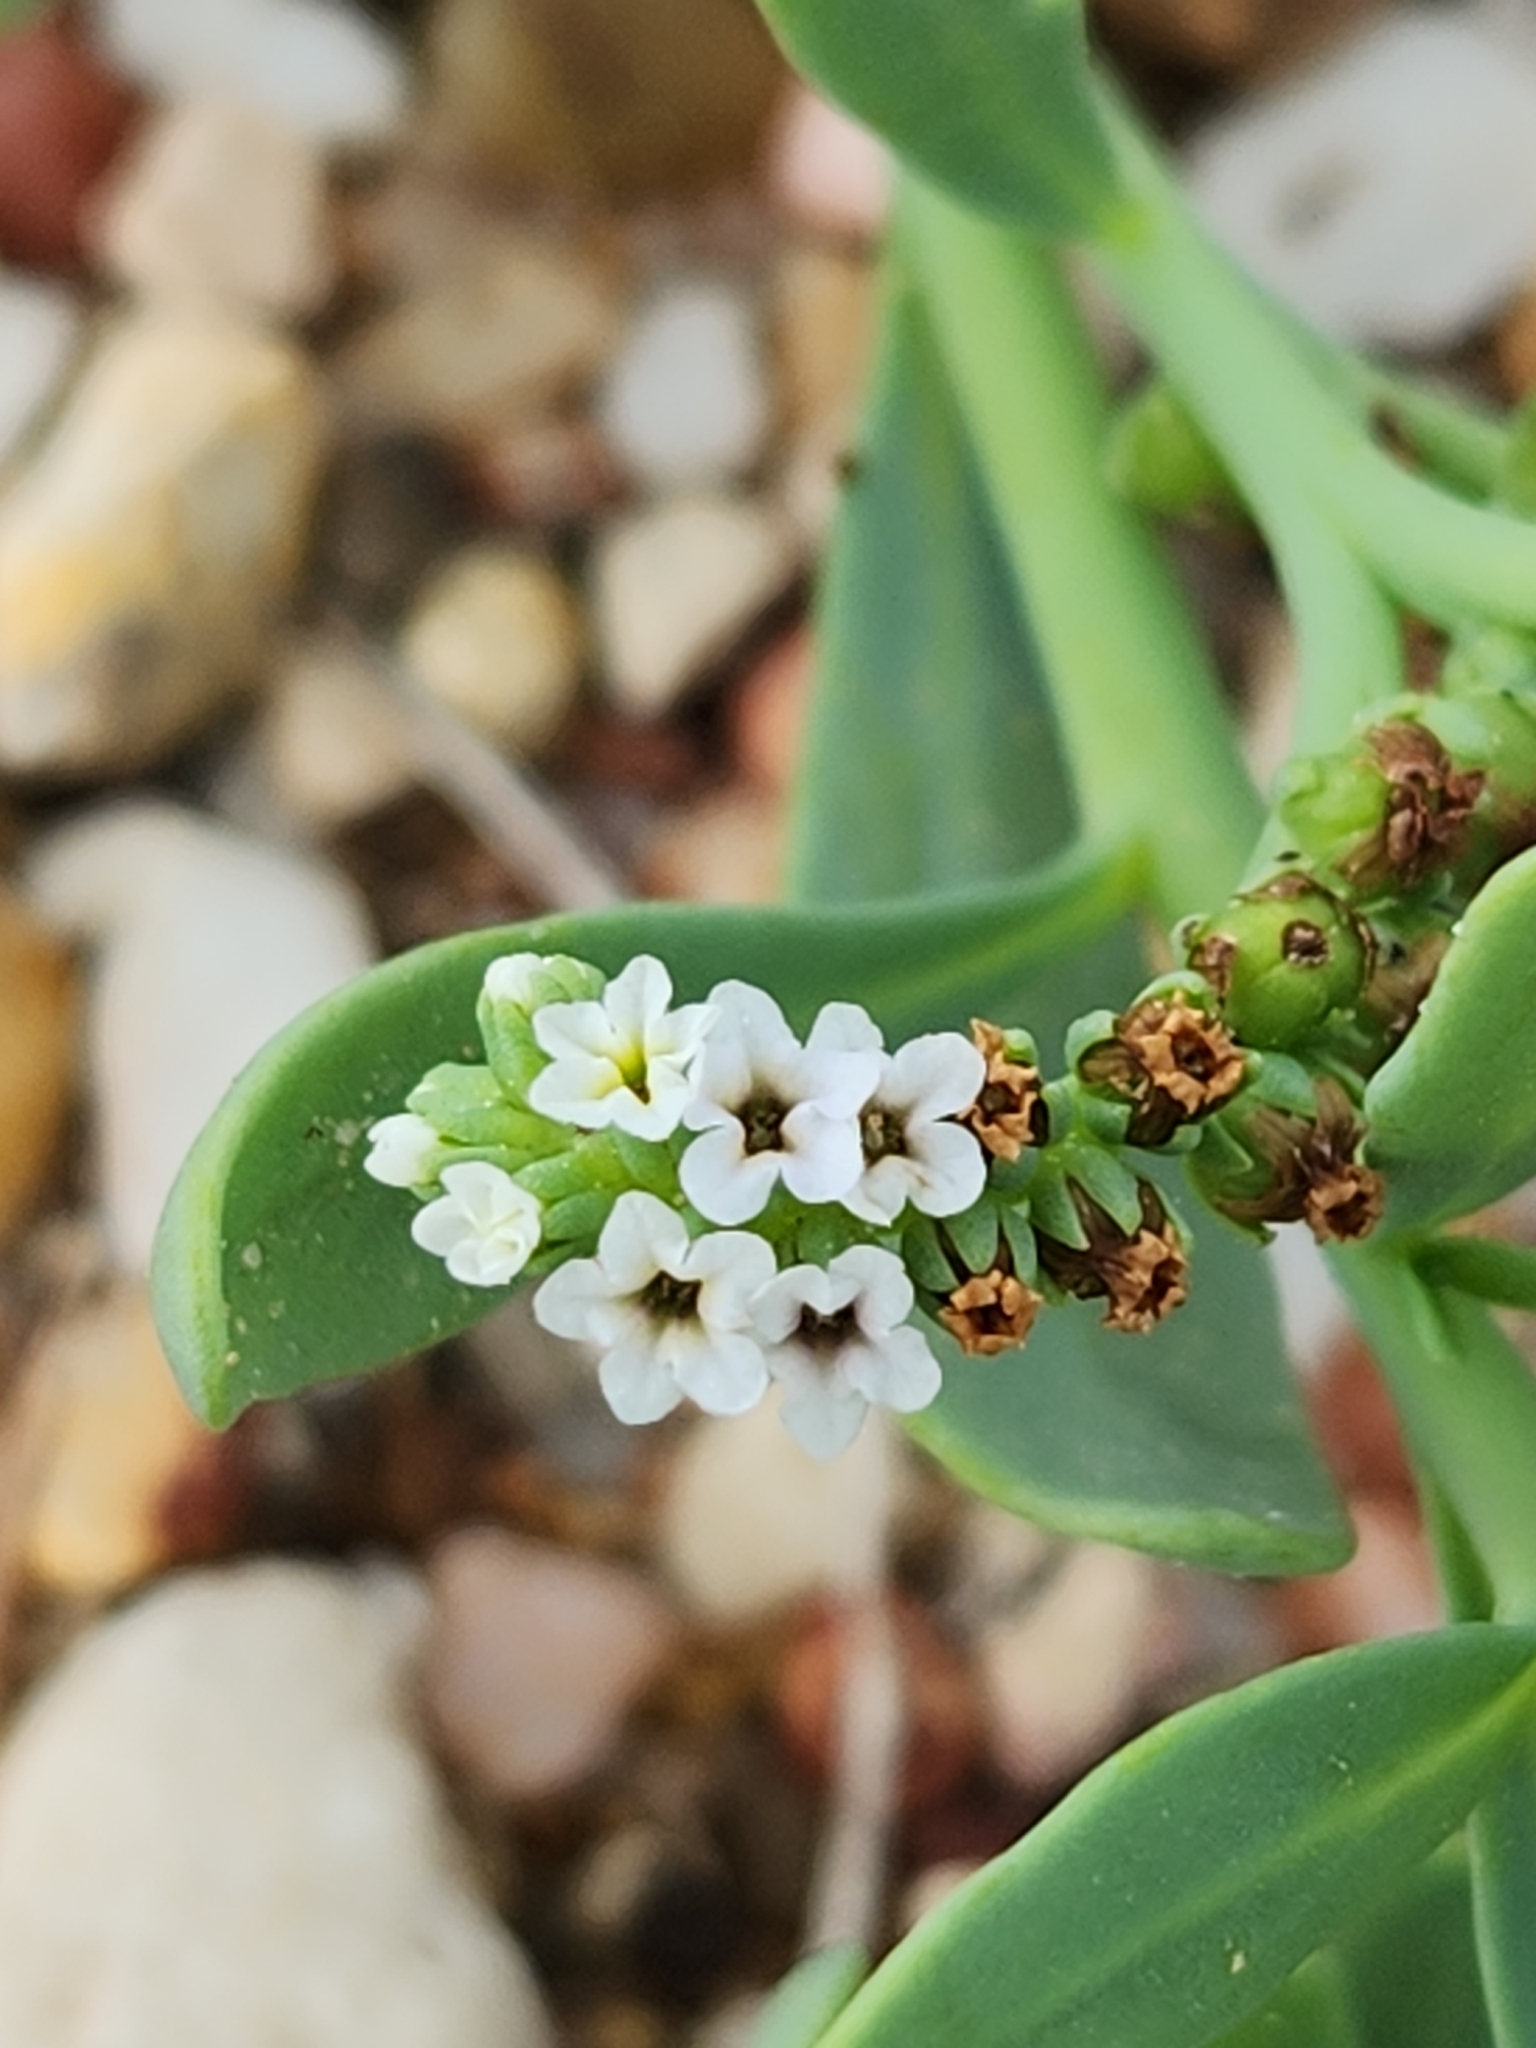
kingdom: Plantae
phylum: Tracheophyta
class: Magnoliopsida
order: Boraginales
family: Heliotropiaceae
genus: Heliotropium
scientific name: Heliotropium curassavicum
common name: Seaside heliotrope
